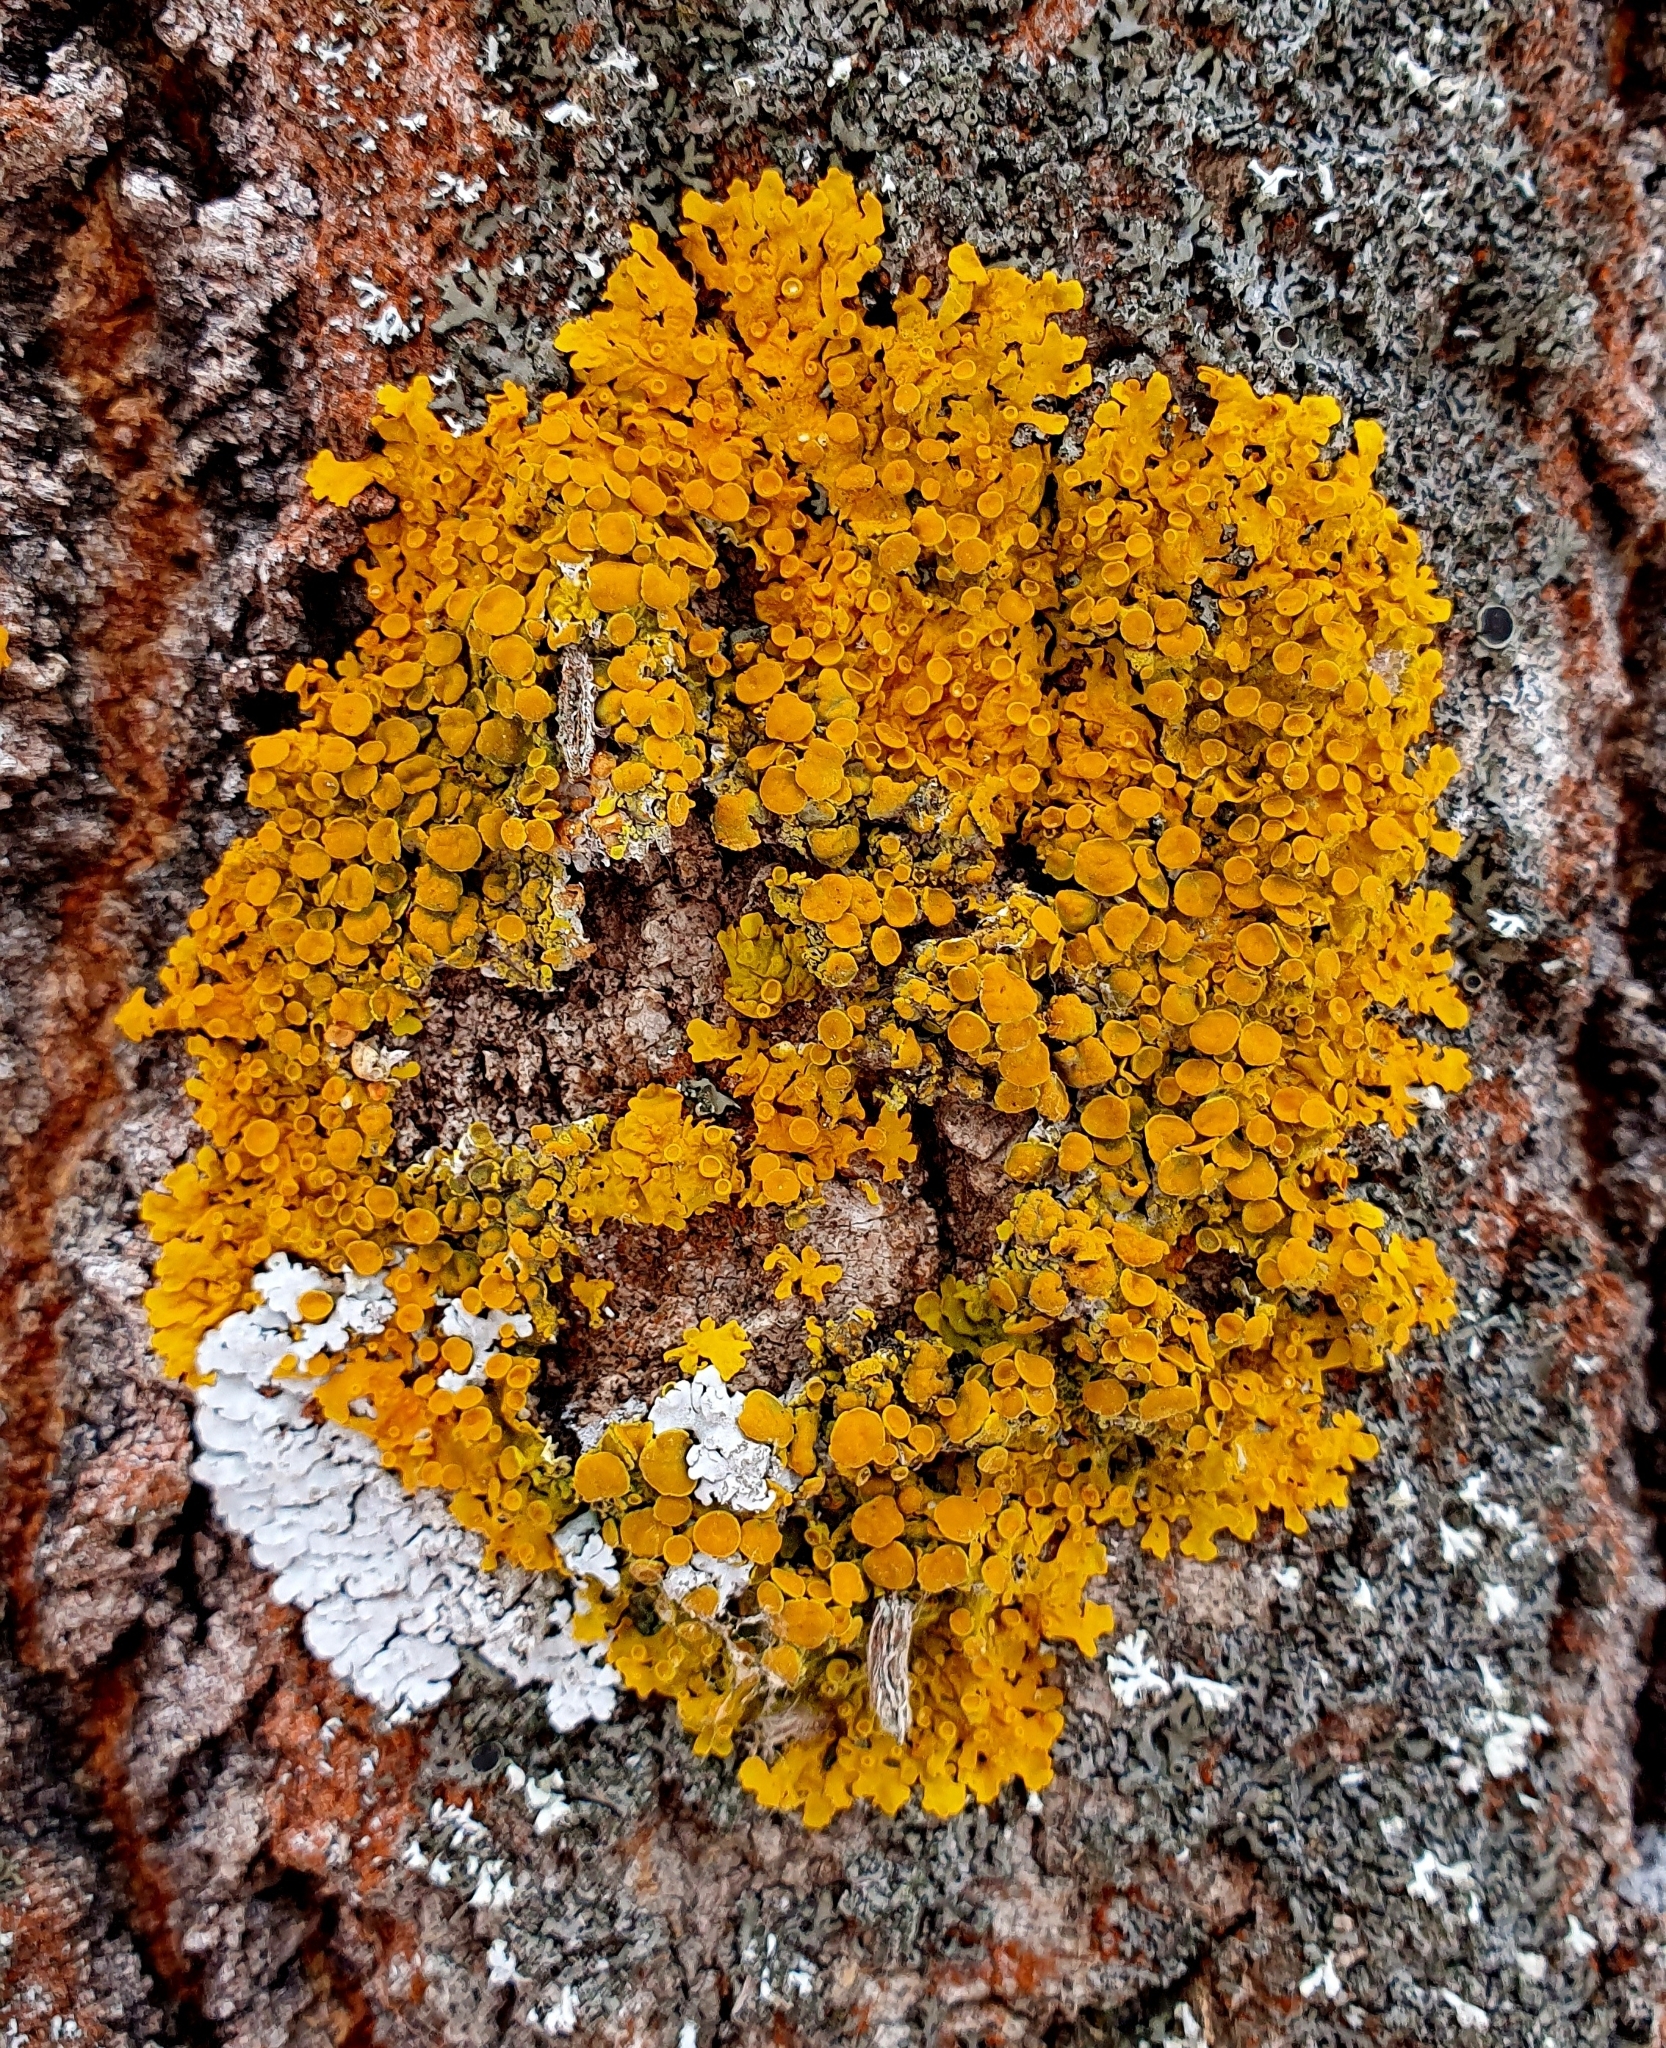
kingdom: Fungi
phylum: Ascomycota
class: Lecanoromycetes
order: Teloschistales
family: Teloschistaceae
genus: Xanthoria
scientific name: Xanthoria parietina
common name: Common orange lichen
